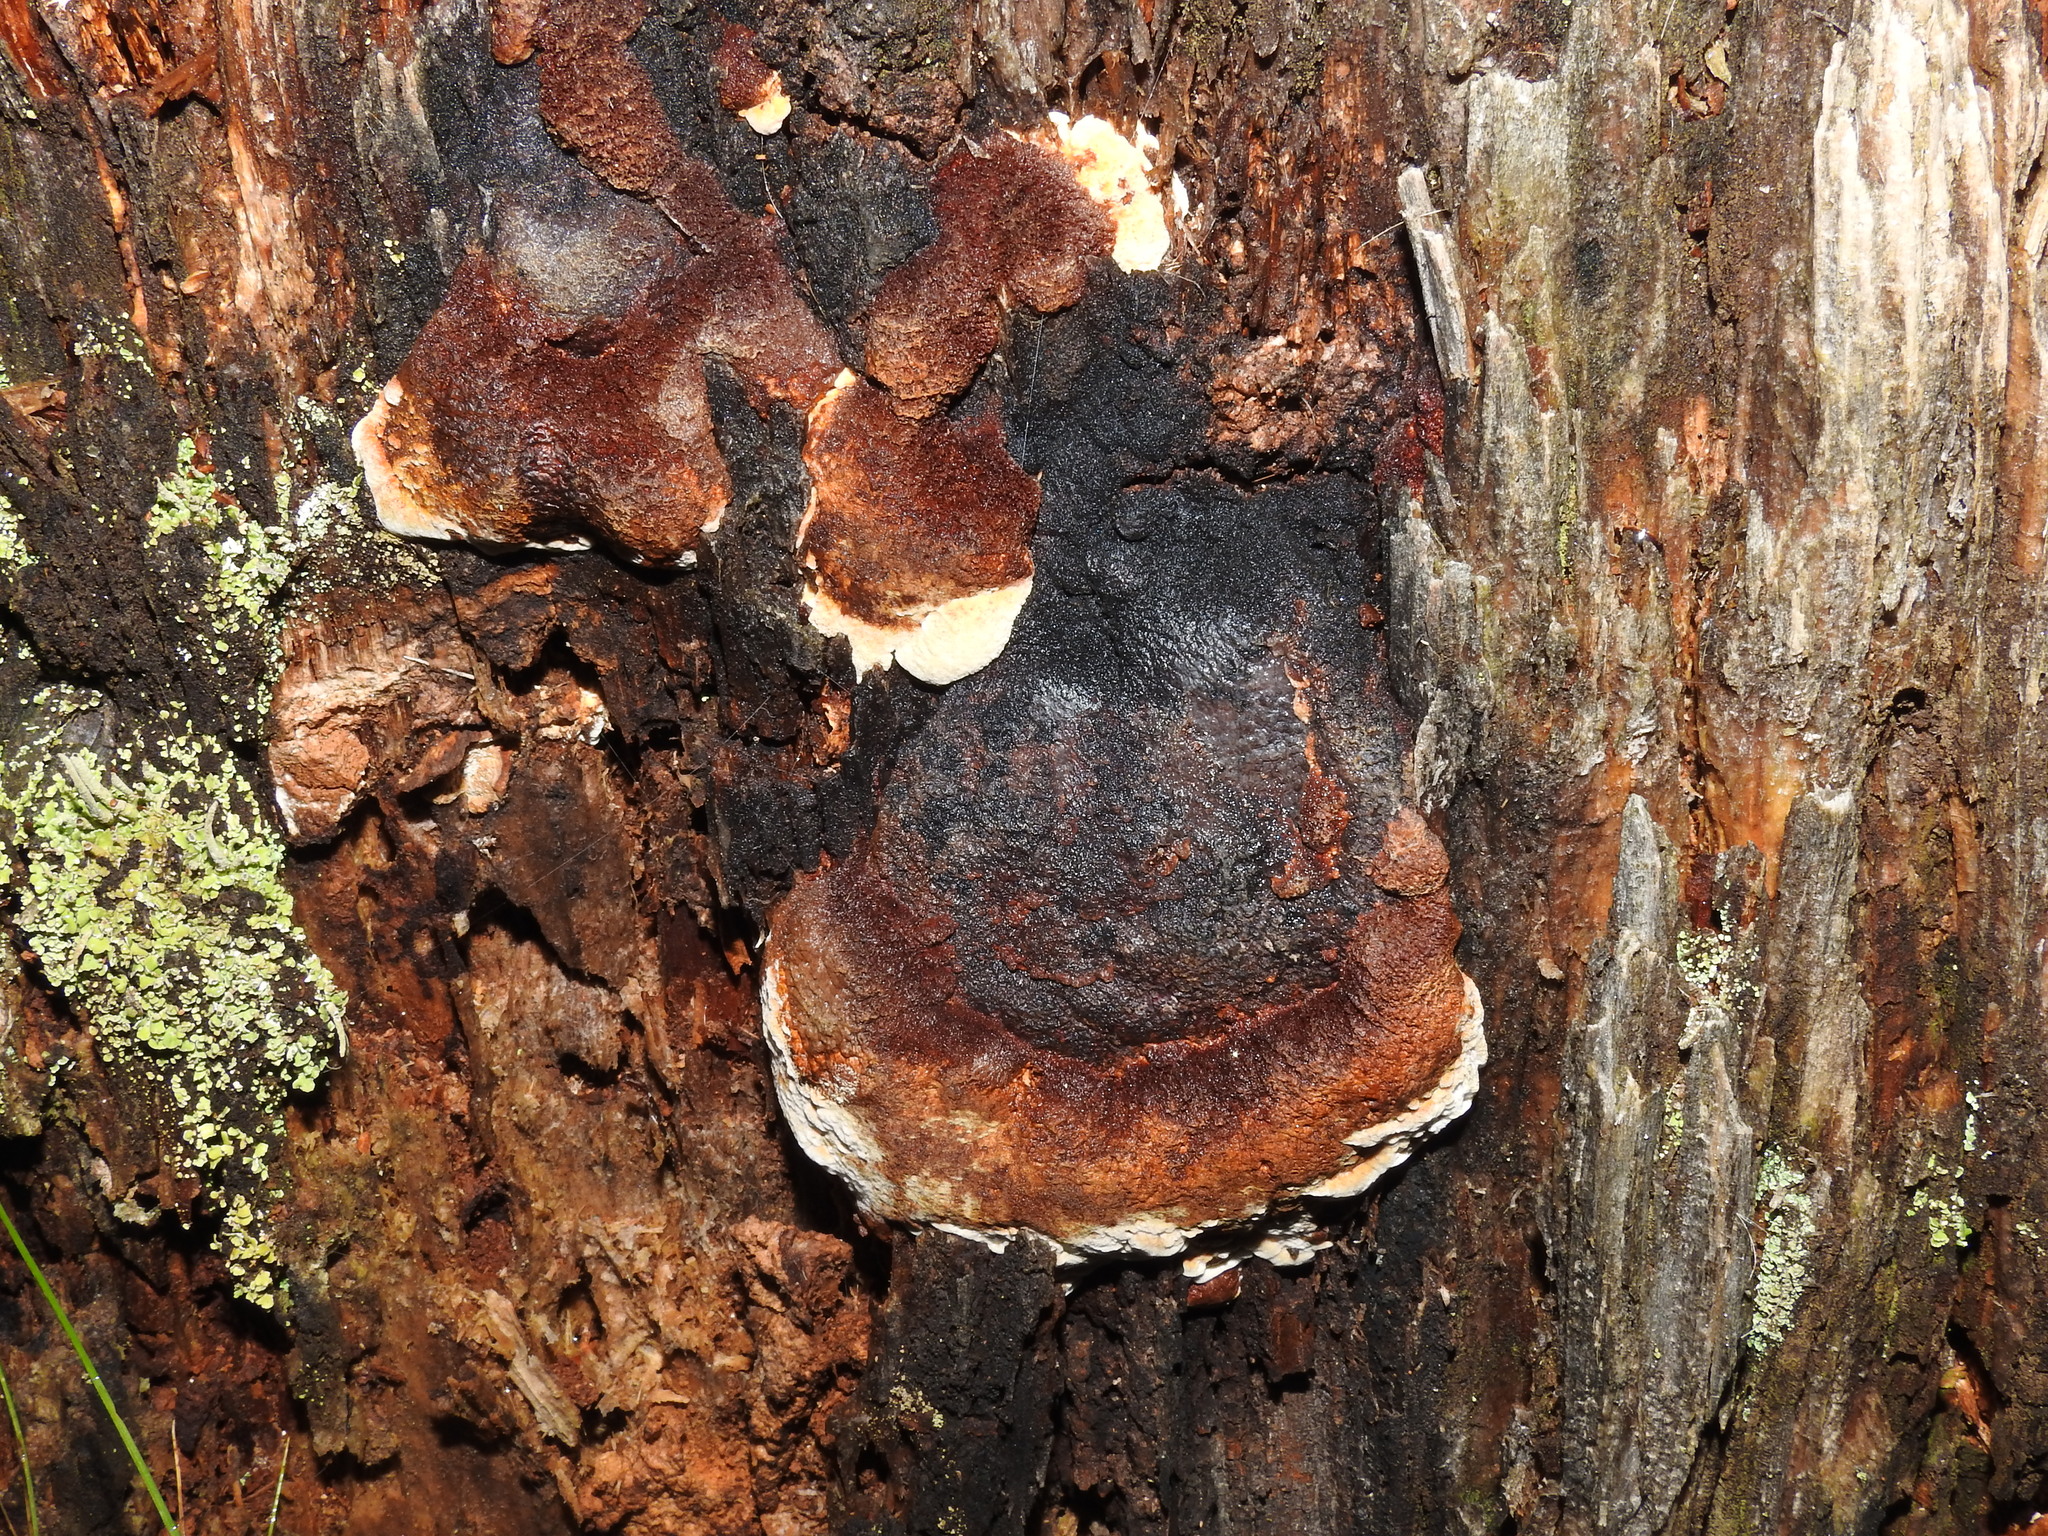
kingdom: Fungi
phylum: Basidiomycota
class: Agaricomycetes
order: Gloeophyllales
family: Gloeophyllaceae
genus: Gloeophyllum
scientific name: Gloeophyllum odoratum
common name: Anise mazegill
